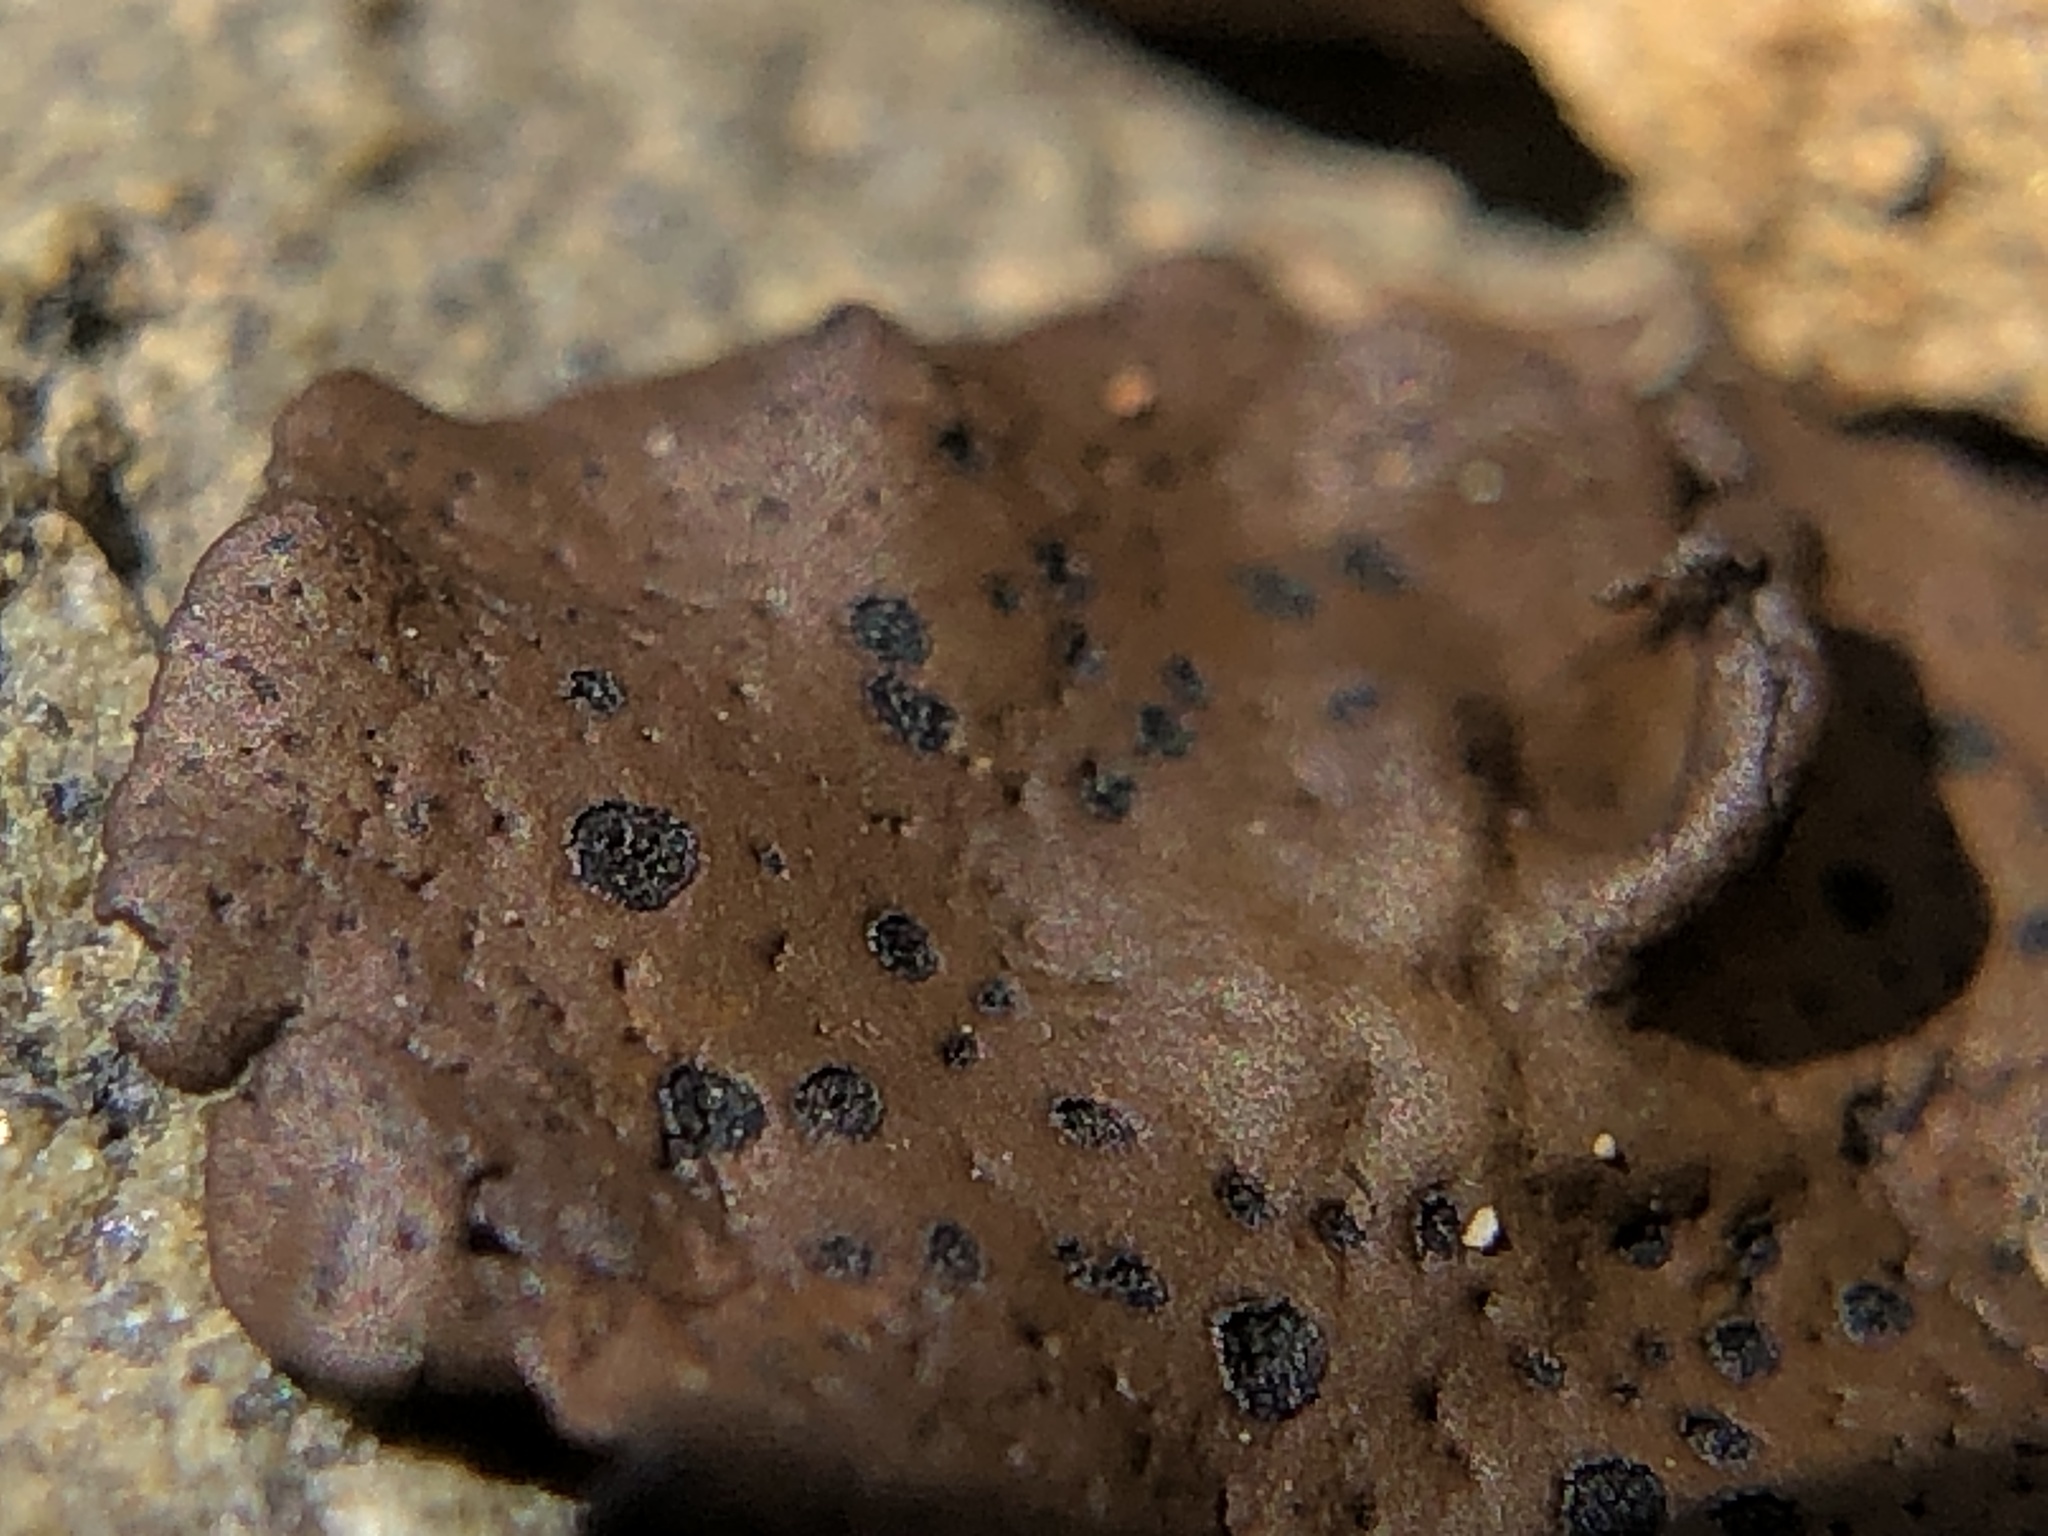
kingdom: Fungi
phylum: Ascomycota
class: Lecanoromycetes
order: Umbilicariales
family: Umbilicariaceae
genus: Umbilicaria
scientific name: Umbilicaria phaea
